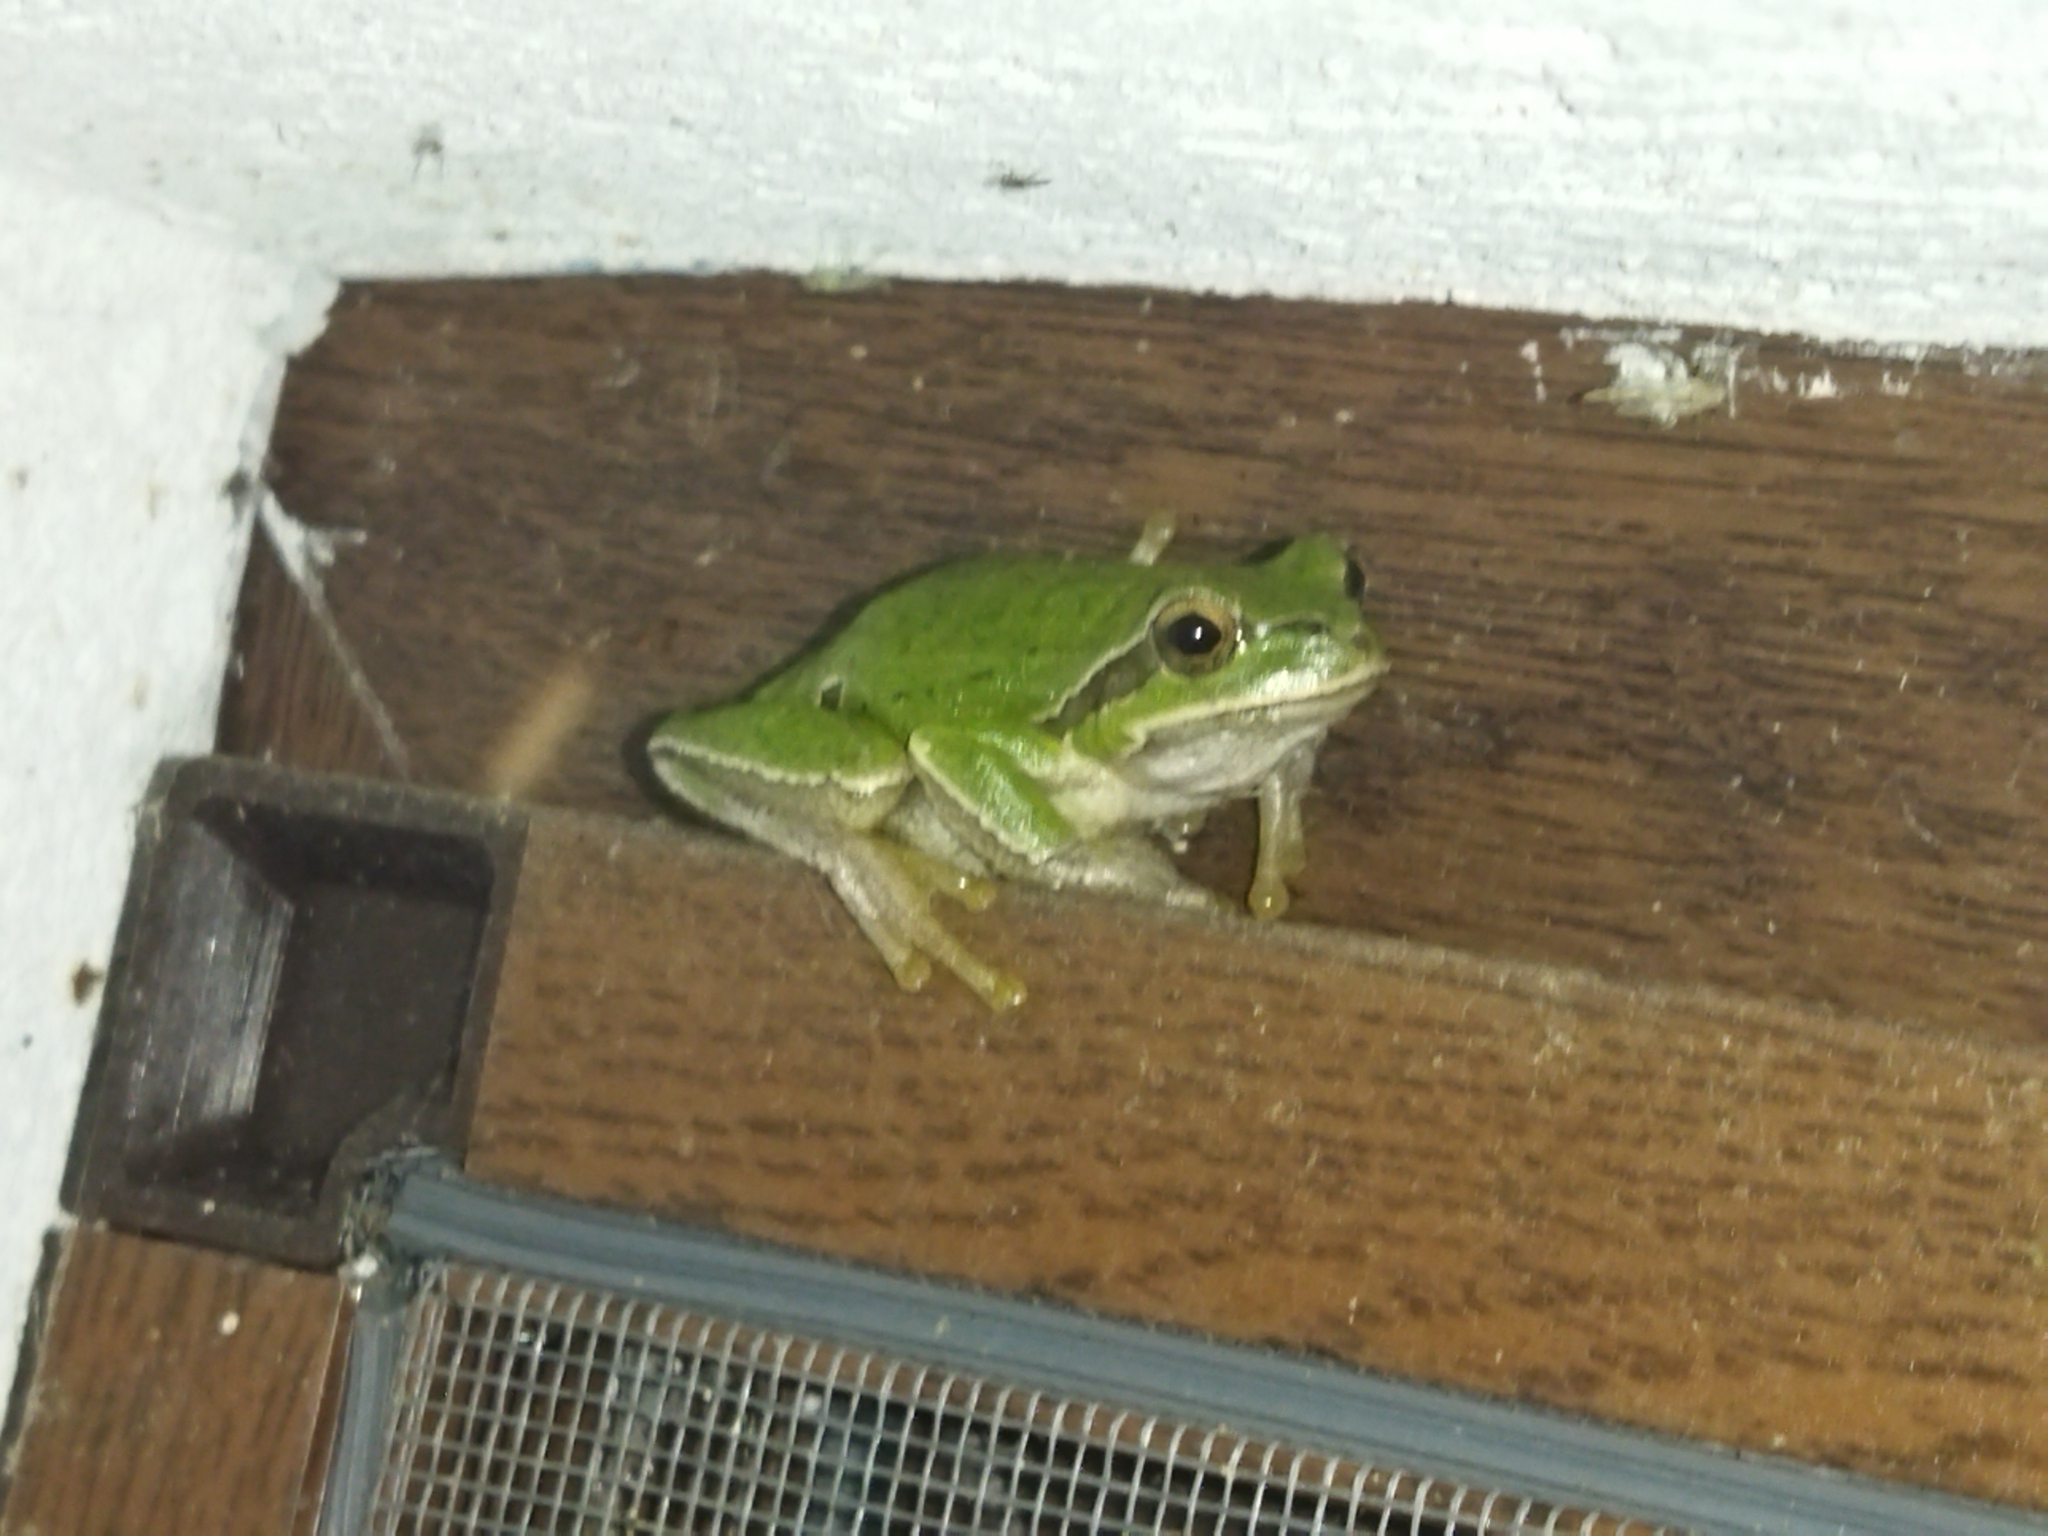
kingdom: Animalia
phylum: Chordata
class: Amphibia
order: Anura
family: Hylidae
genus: Hyla
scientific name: Hyla orientalis
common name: Caucasian treefrog
